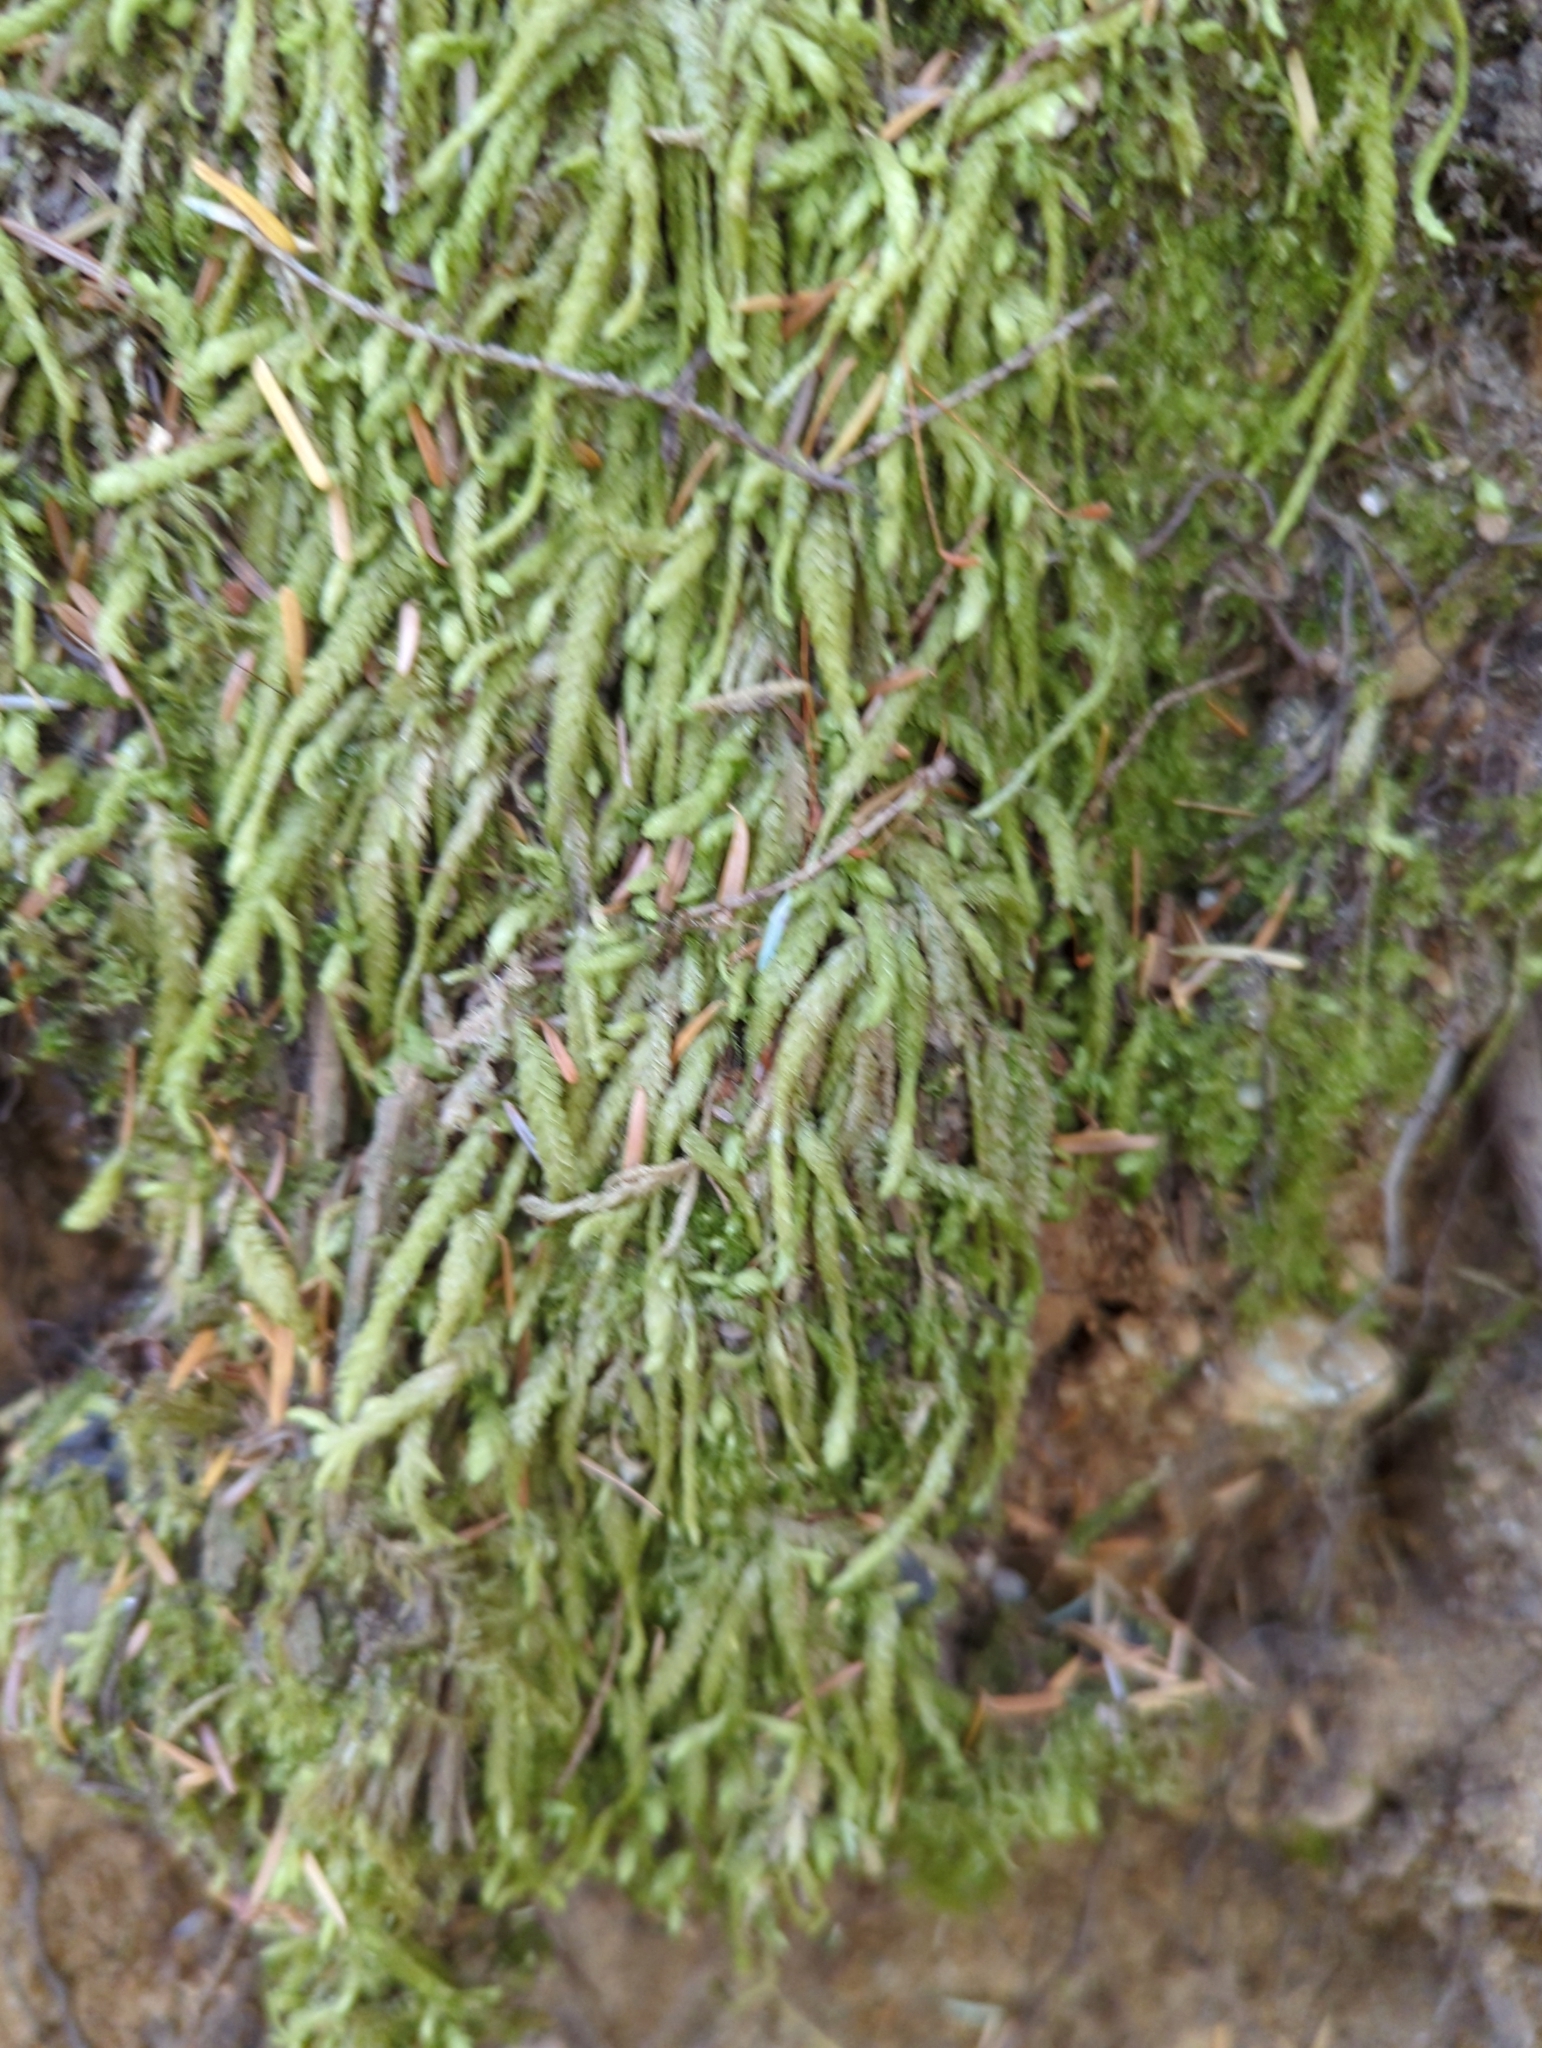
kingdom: Plantae
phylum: Bryophyta
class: Bryopsida
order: Hypnales
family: Plagiotheciaceae
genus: Plagiothecium
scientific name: Plagiothecium undulatum
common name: Waved silk-moss
